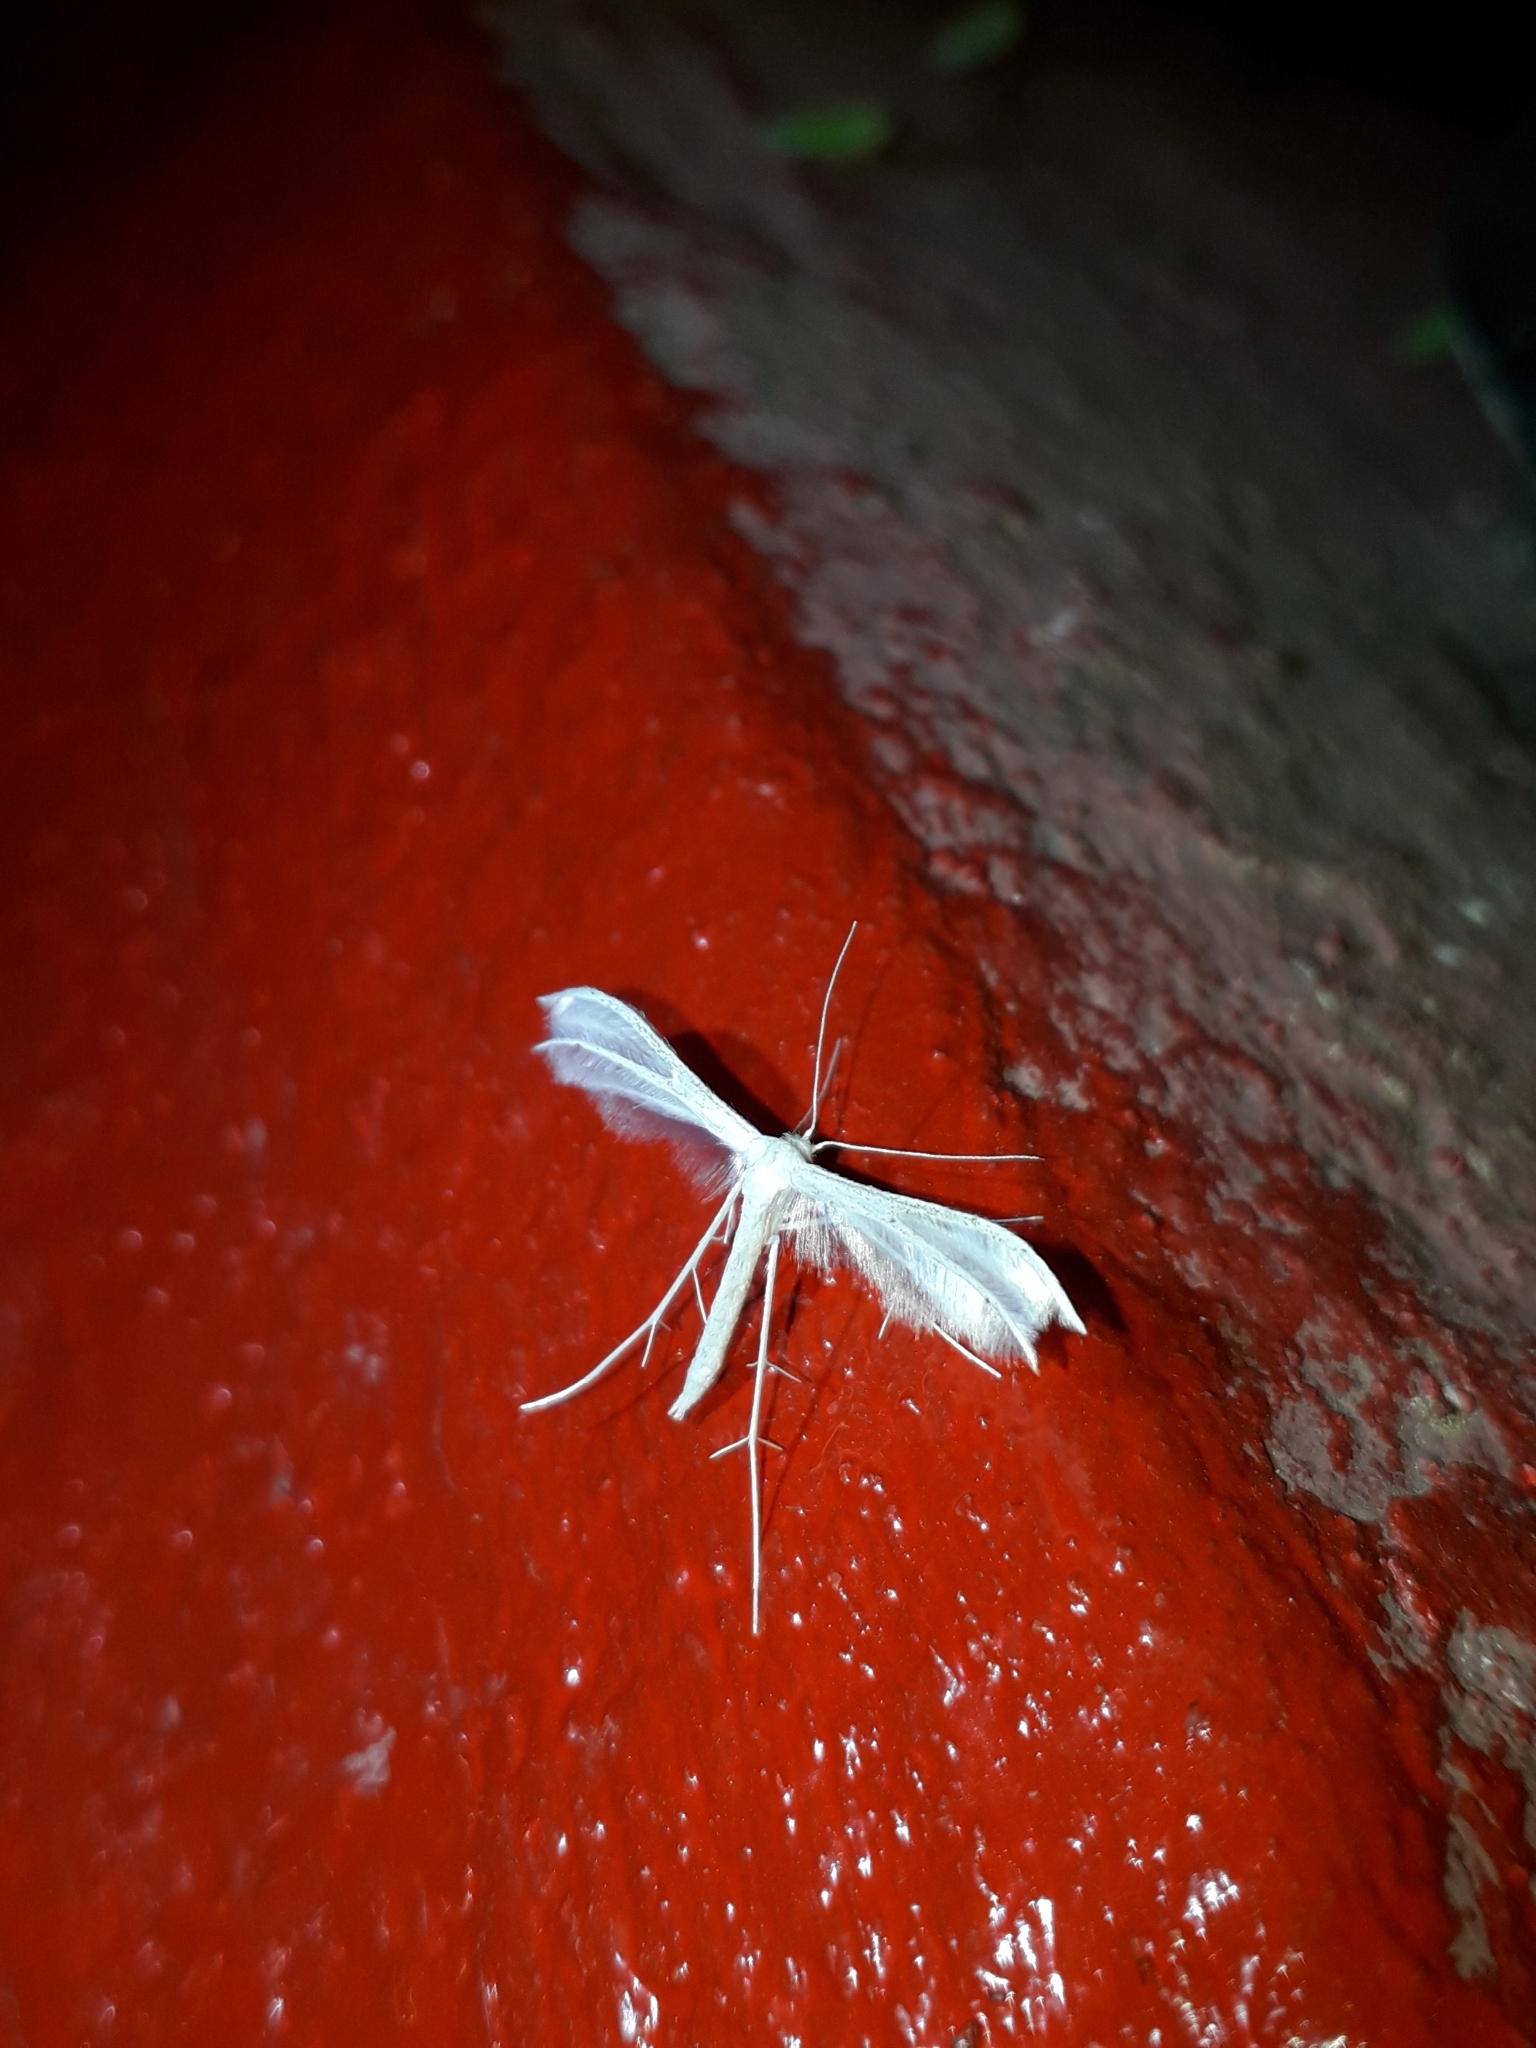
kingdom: Animalia
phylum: Arthropoda
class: Insecta
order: Lepidoptera
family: Pterophoridae
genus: Pterophorus
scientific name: Pterophorus pentadactyla
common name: White plume moth
